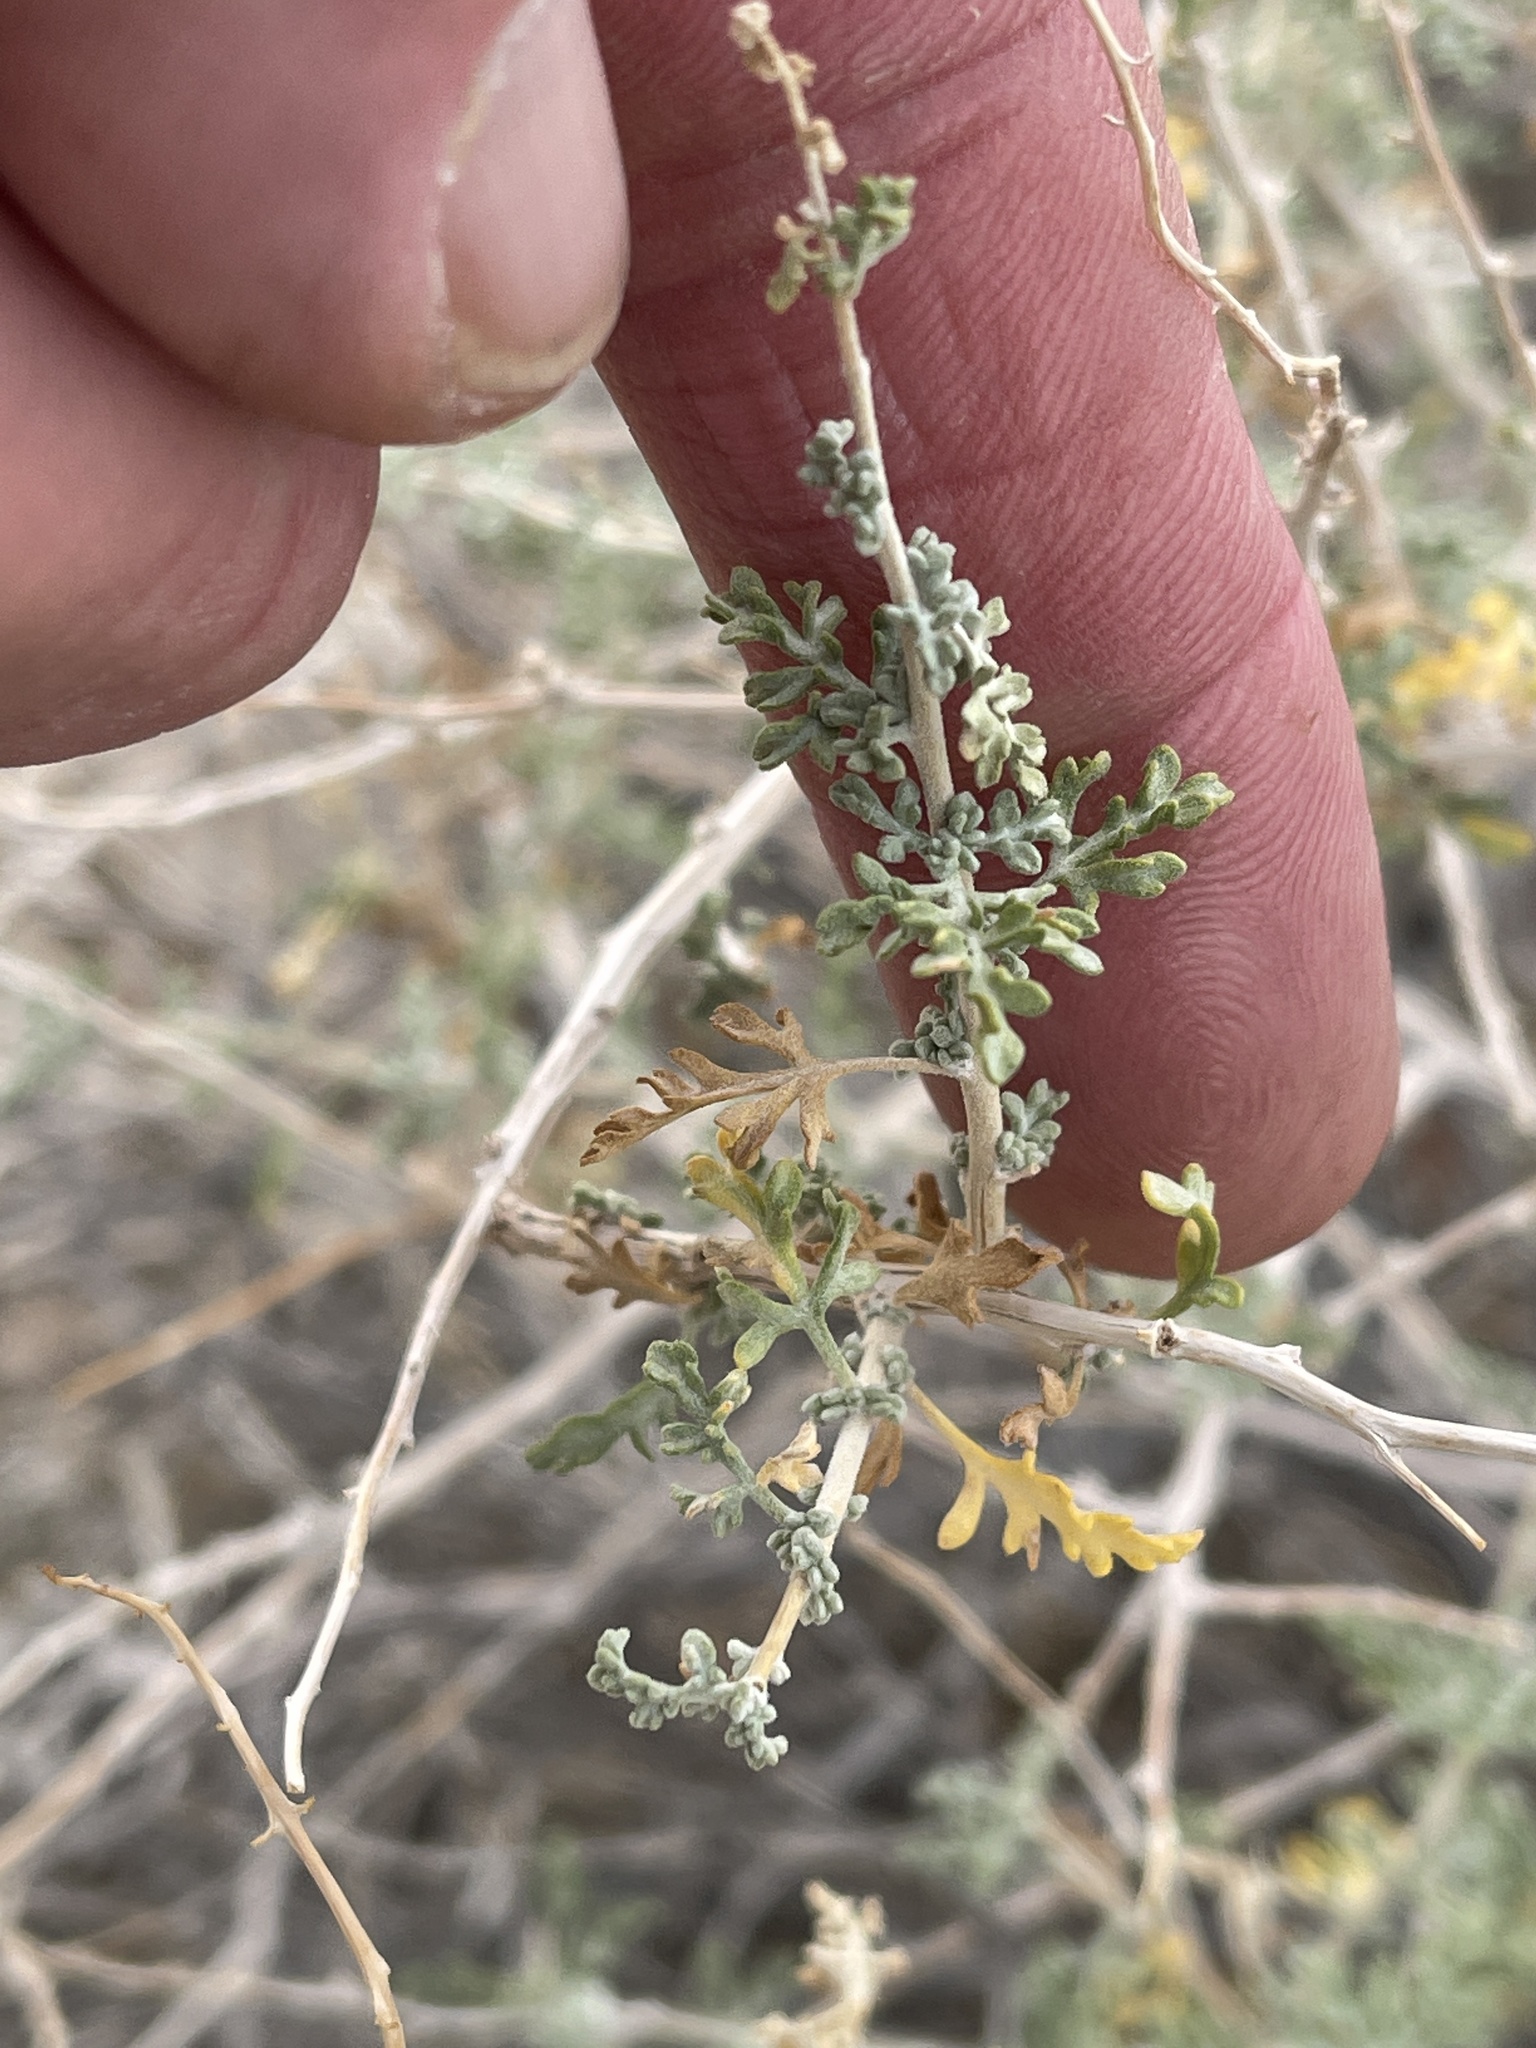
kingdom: Plantae
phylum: Tracheophyta
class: Magnoliopsida
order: Asterales
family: Asteraceae
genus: Ambrosia
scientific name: Ambrosia dumosa
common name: Bur-sage
